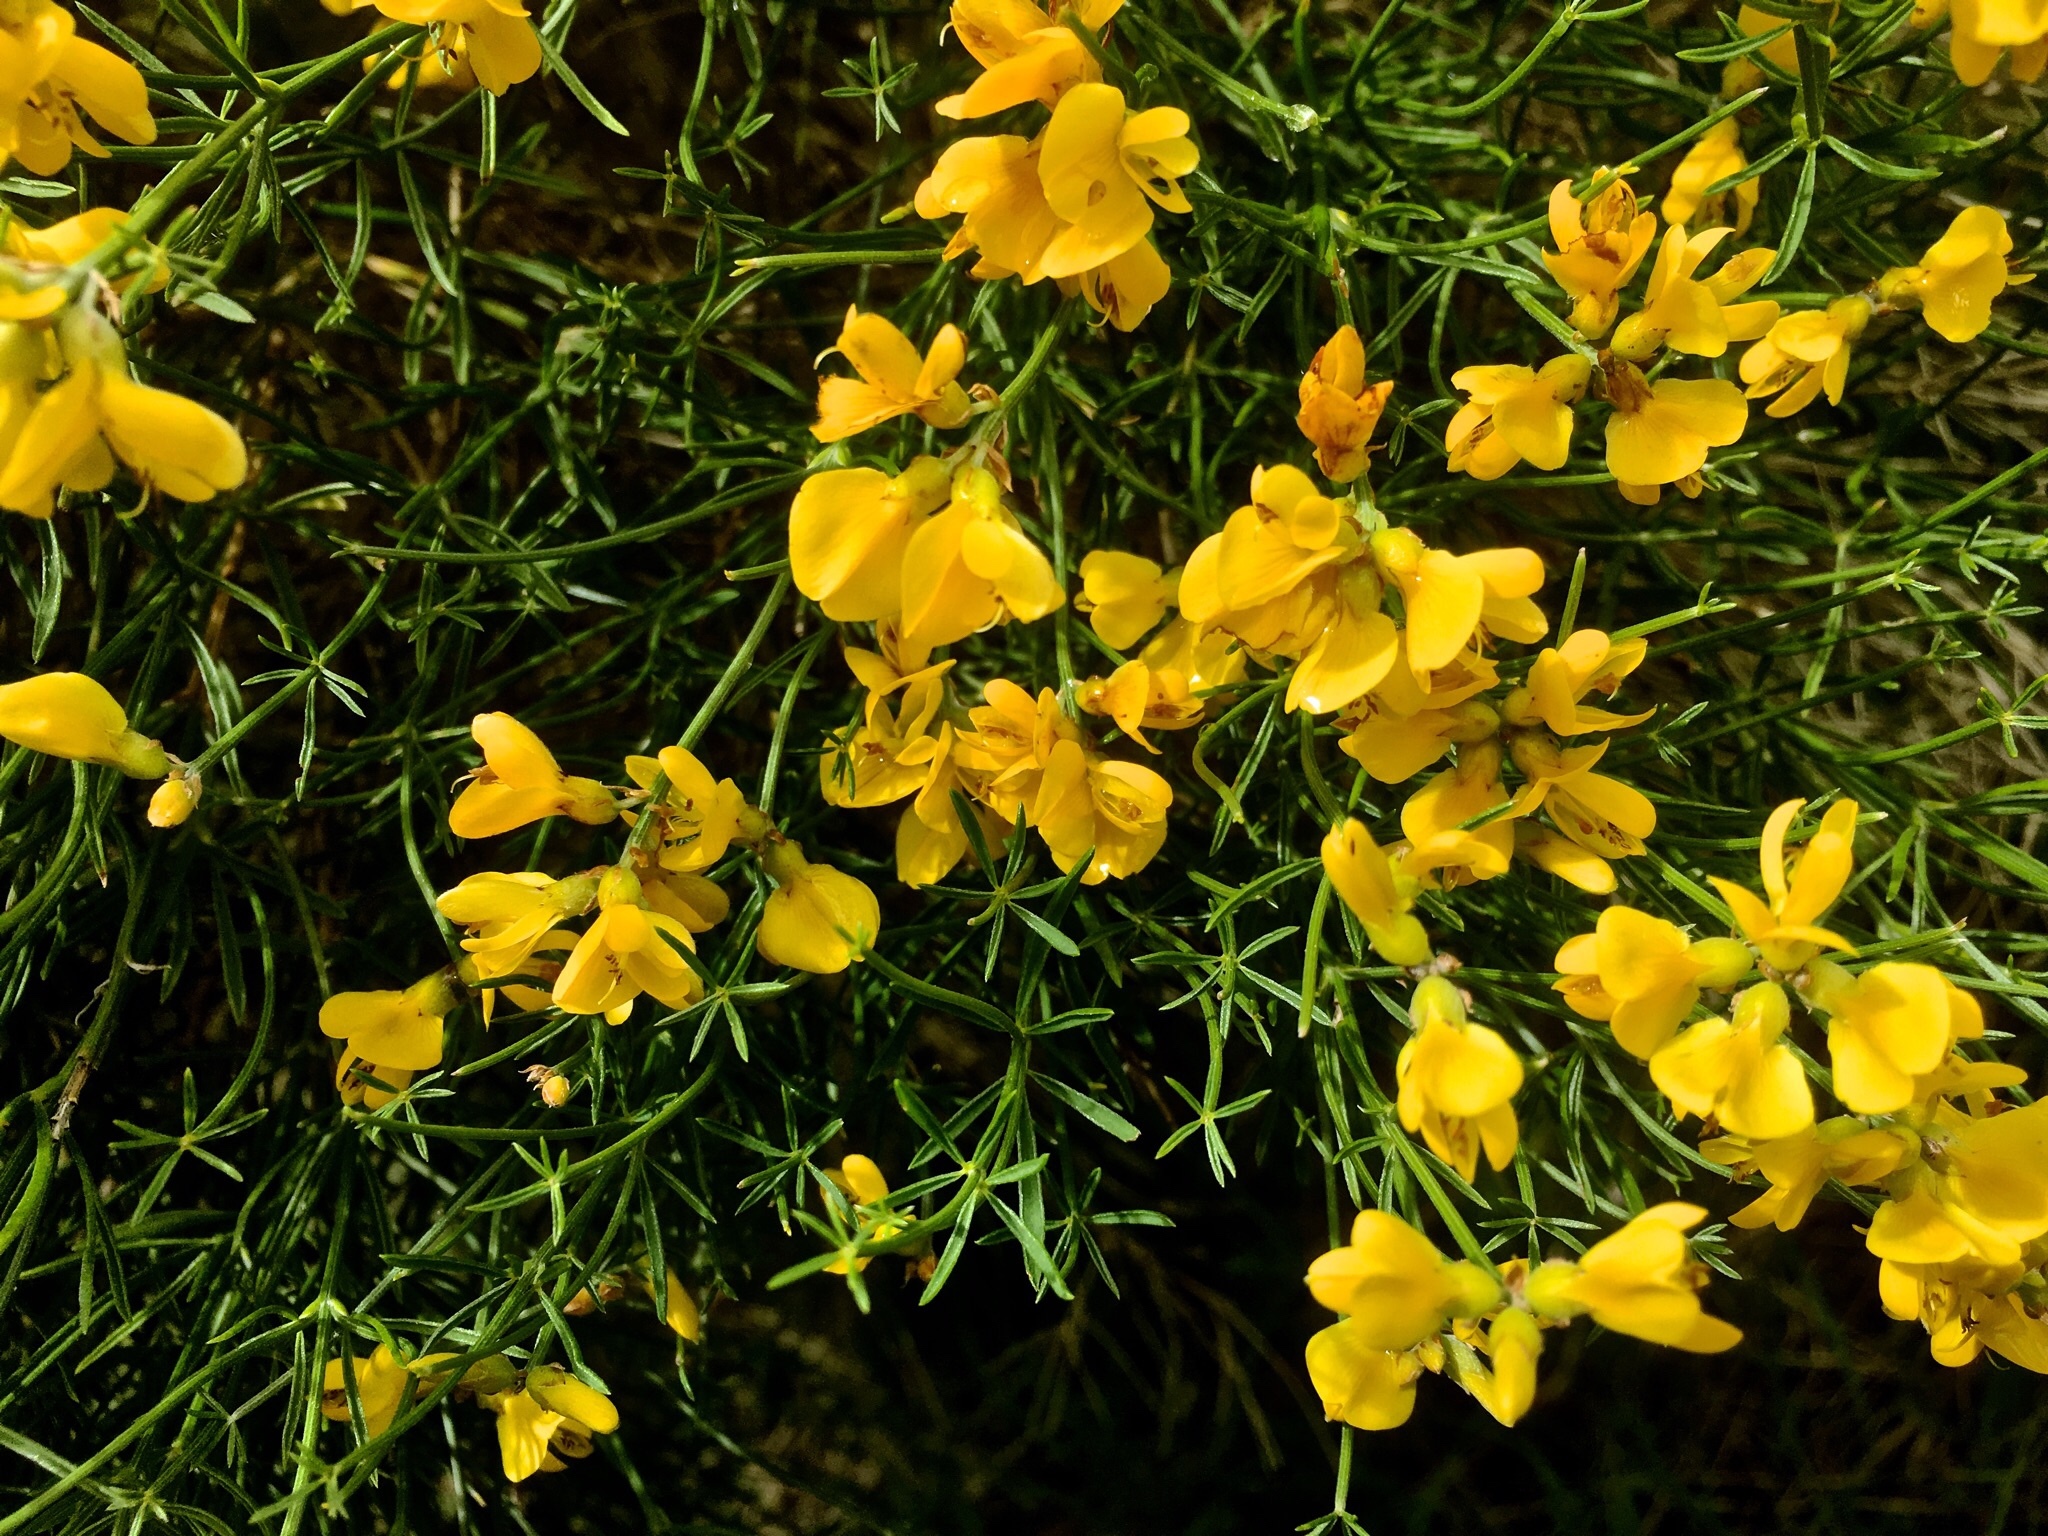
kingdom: Plantae
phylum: Tracheophyta
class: Magnoliopsida
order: Fabales
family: Fabaceae
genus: Genista
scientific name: Genista radiata
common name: Southern greenweed
